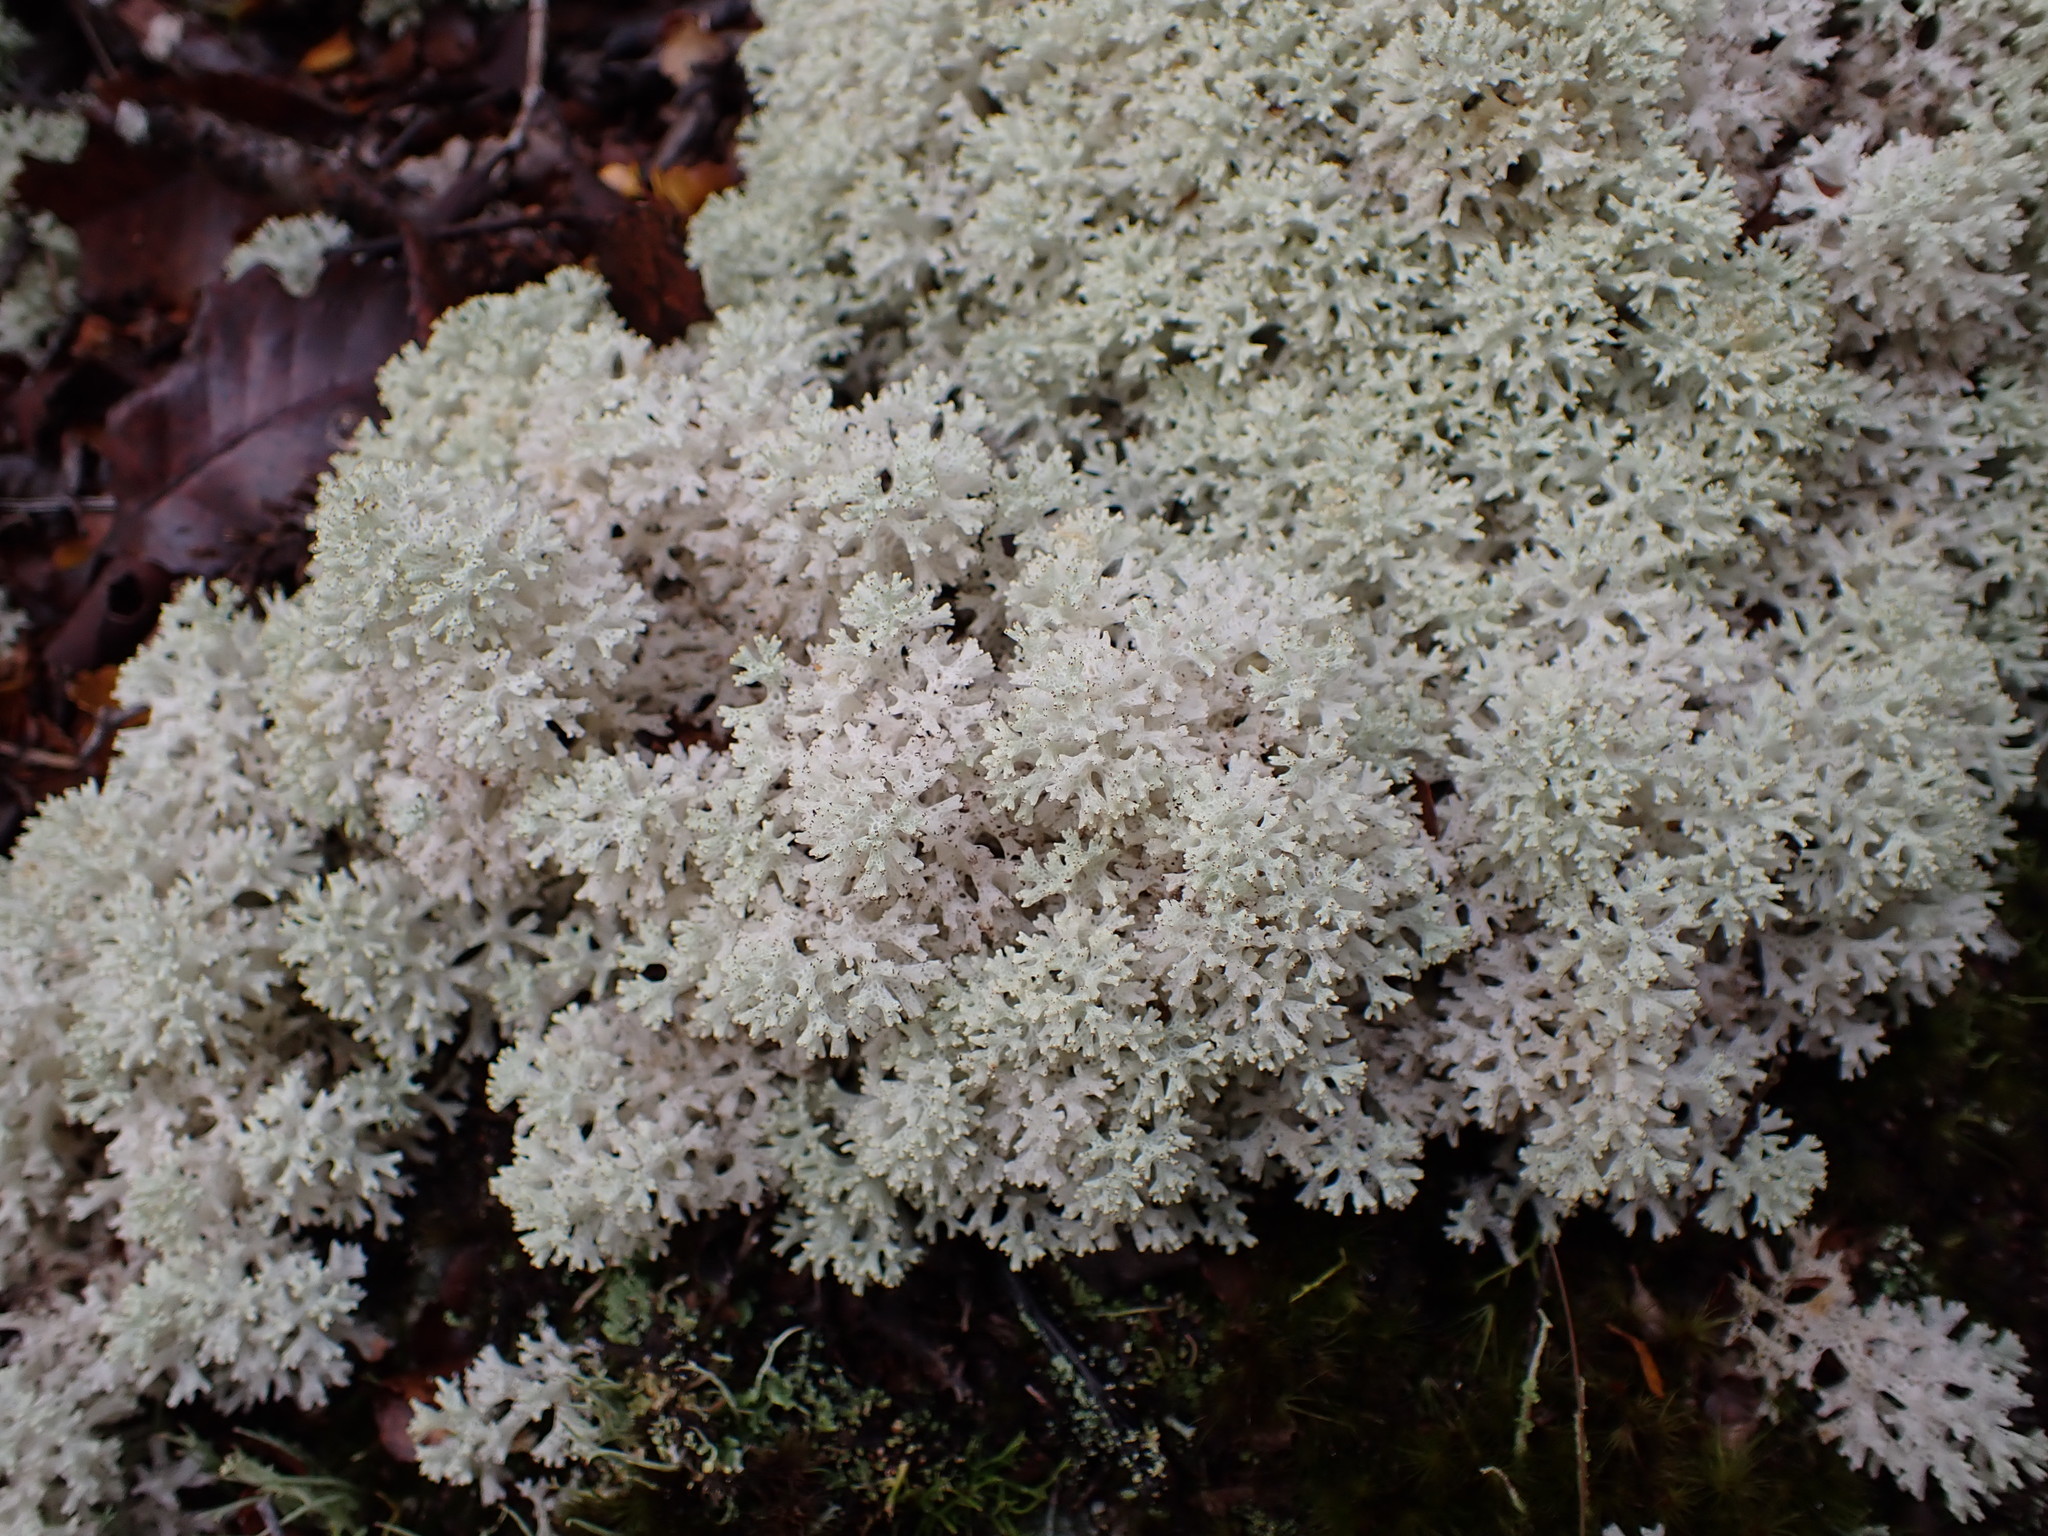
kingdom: Fungi
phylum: Ascomycota
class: Lecanoromycetes
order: Lecanorales
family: Cladoniaceae
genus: Pulchrocladia
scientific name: Pulchrocladia retipora
